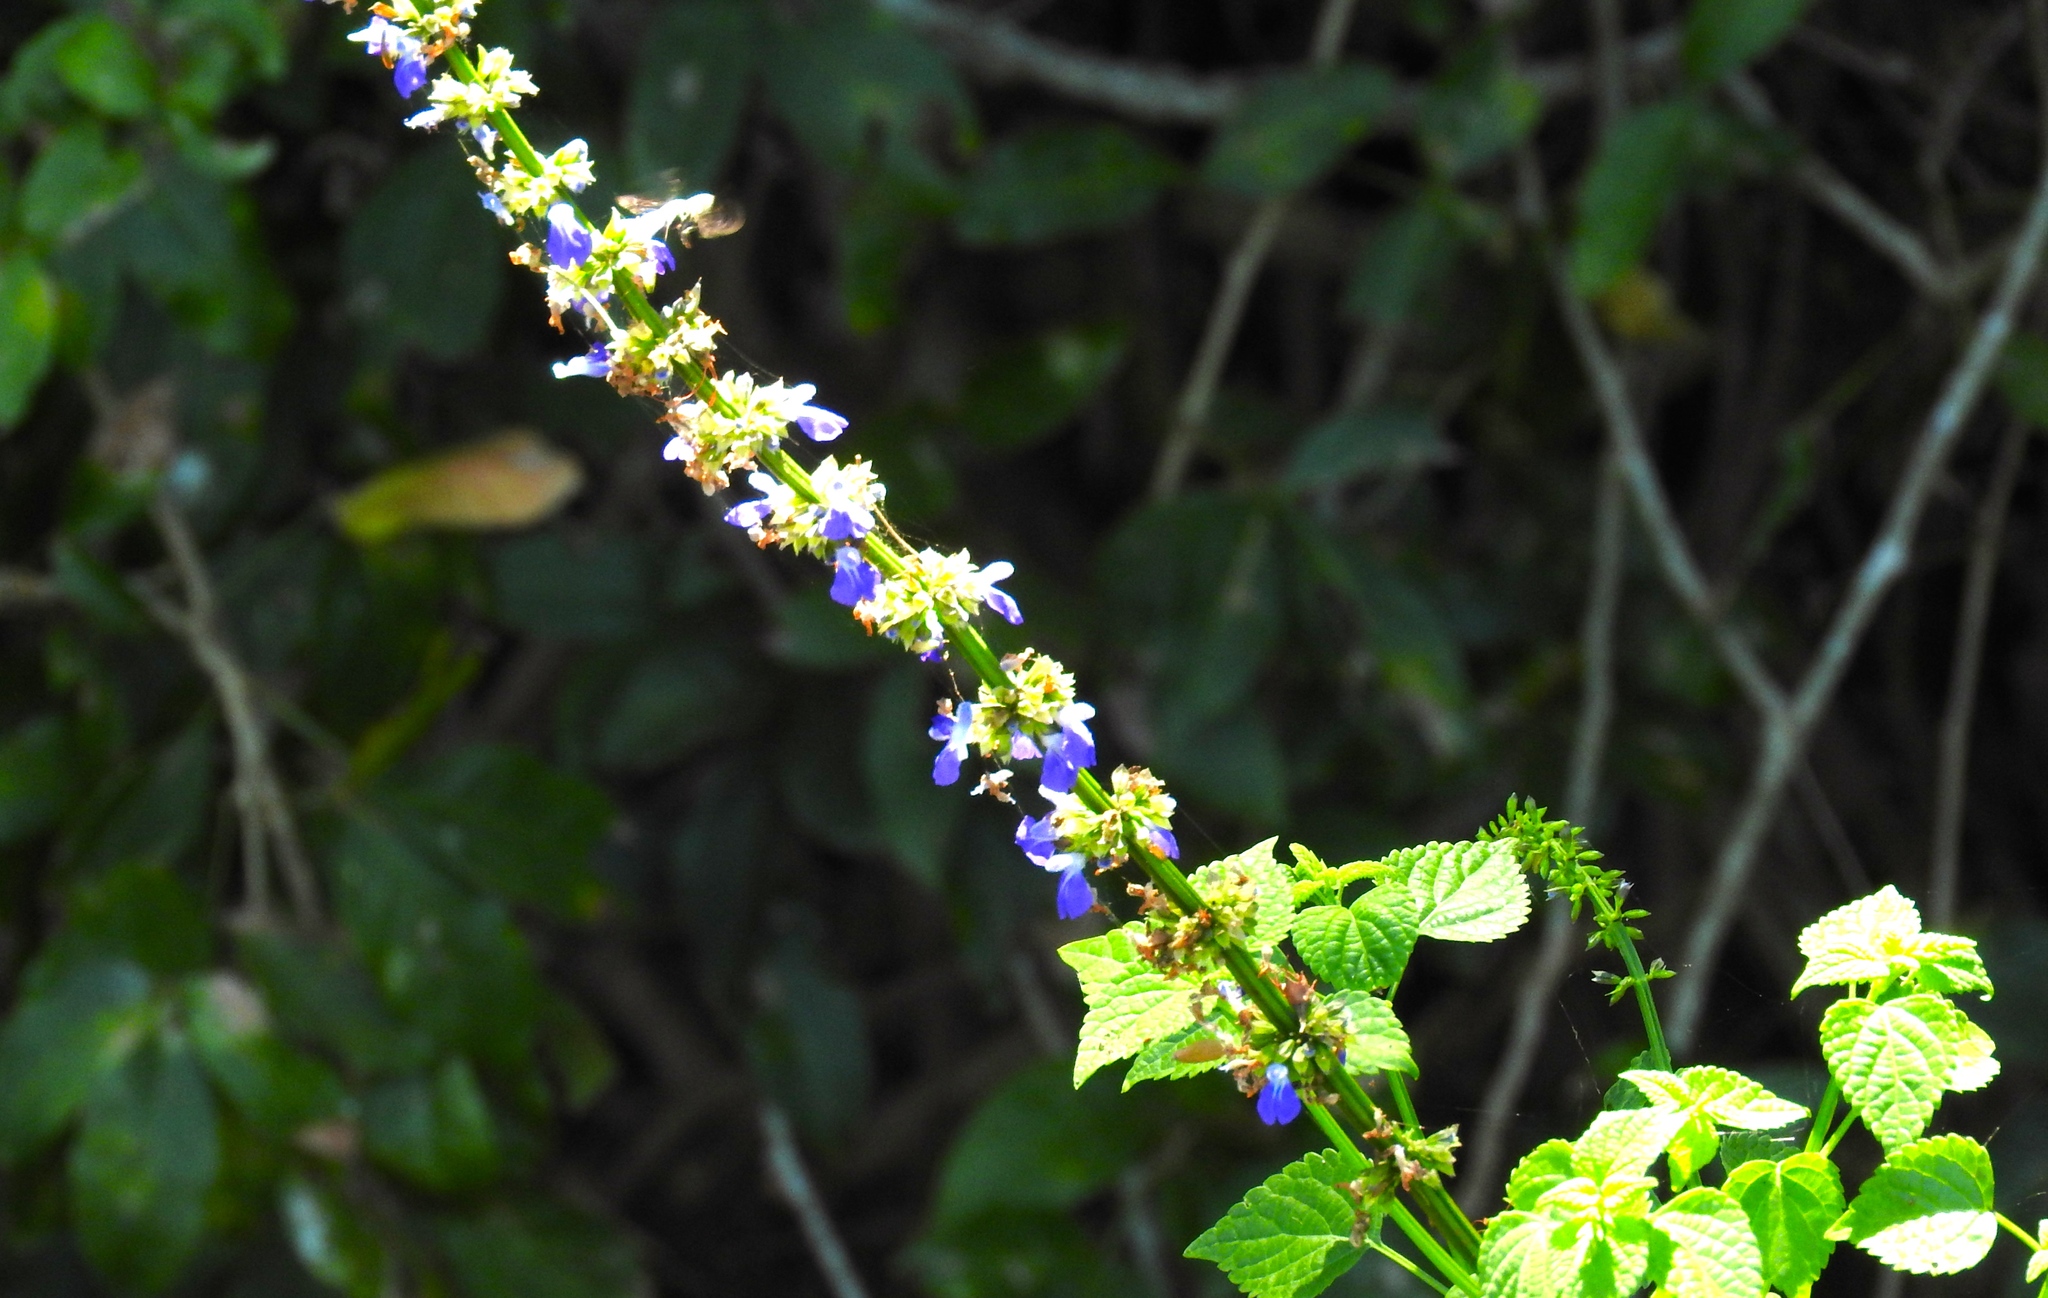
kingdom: Plantae
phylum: Tracheophyta
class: Magnoliopsida
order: Lamiales
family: Lamiaceae
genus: Salvia
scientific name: Salvia languidula
